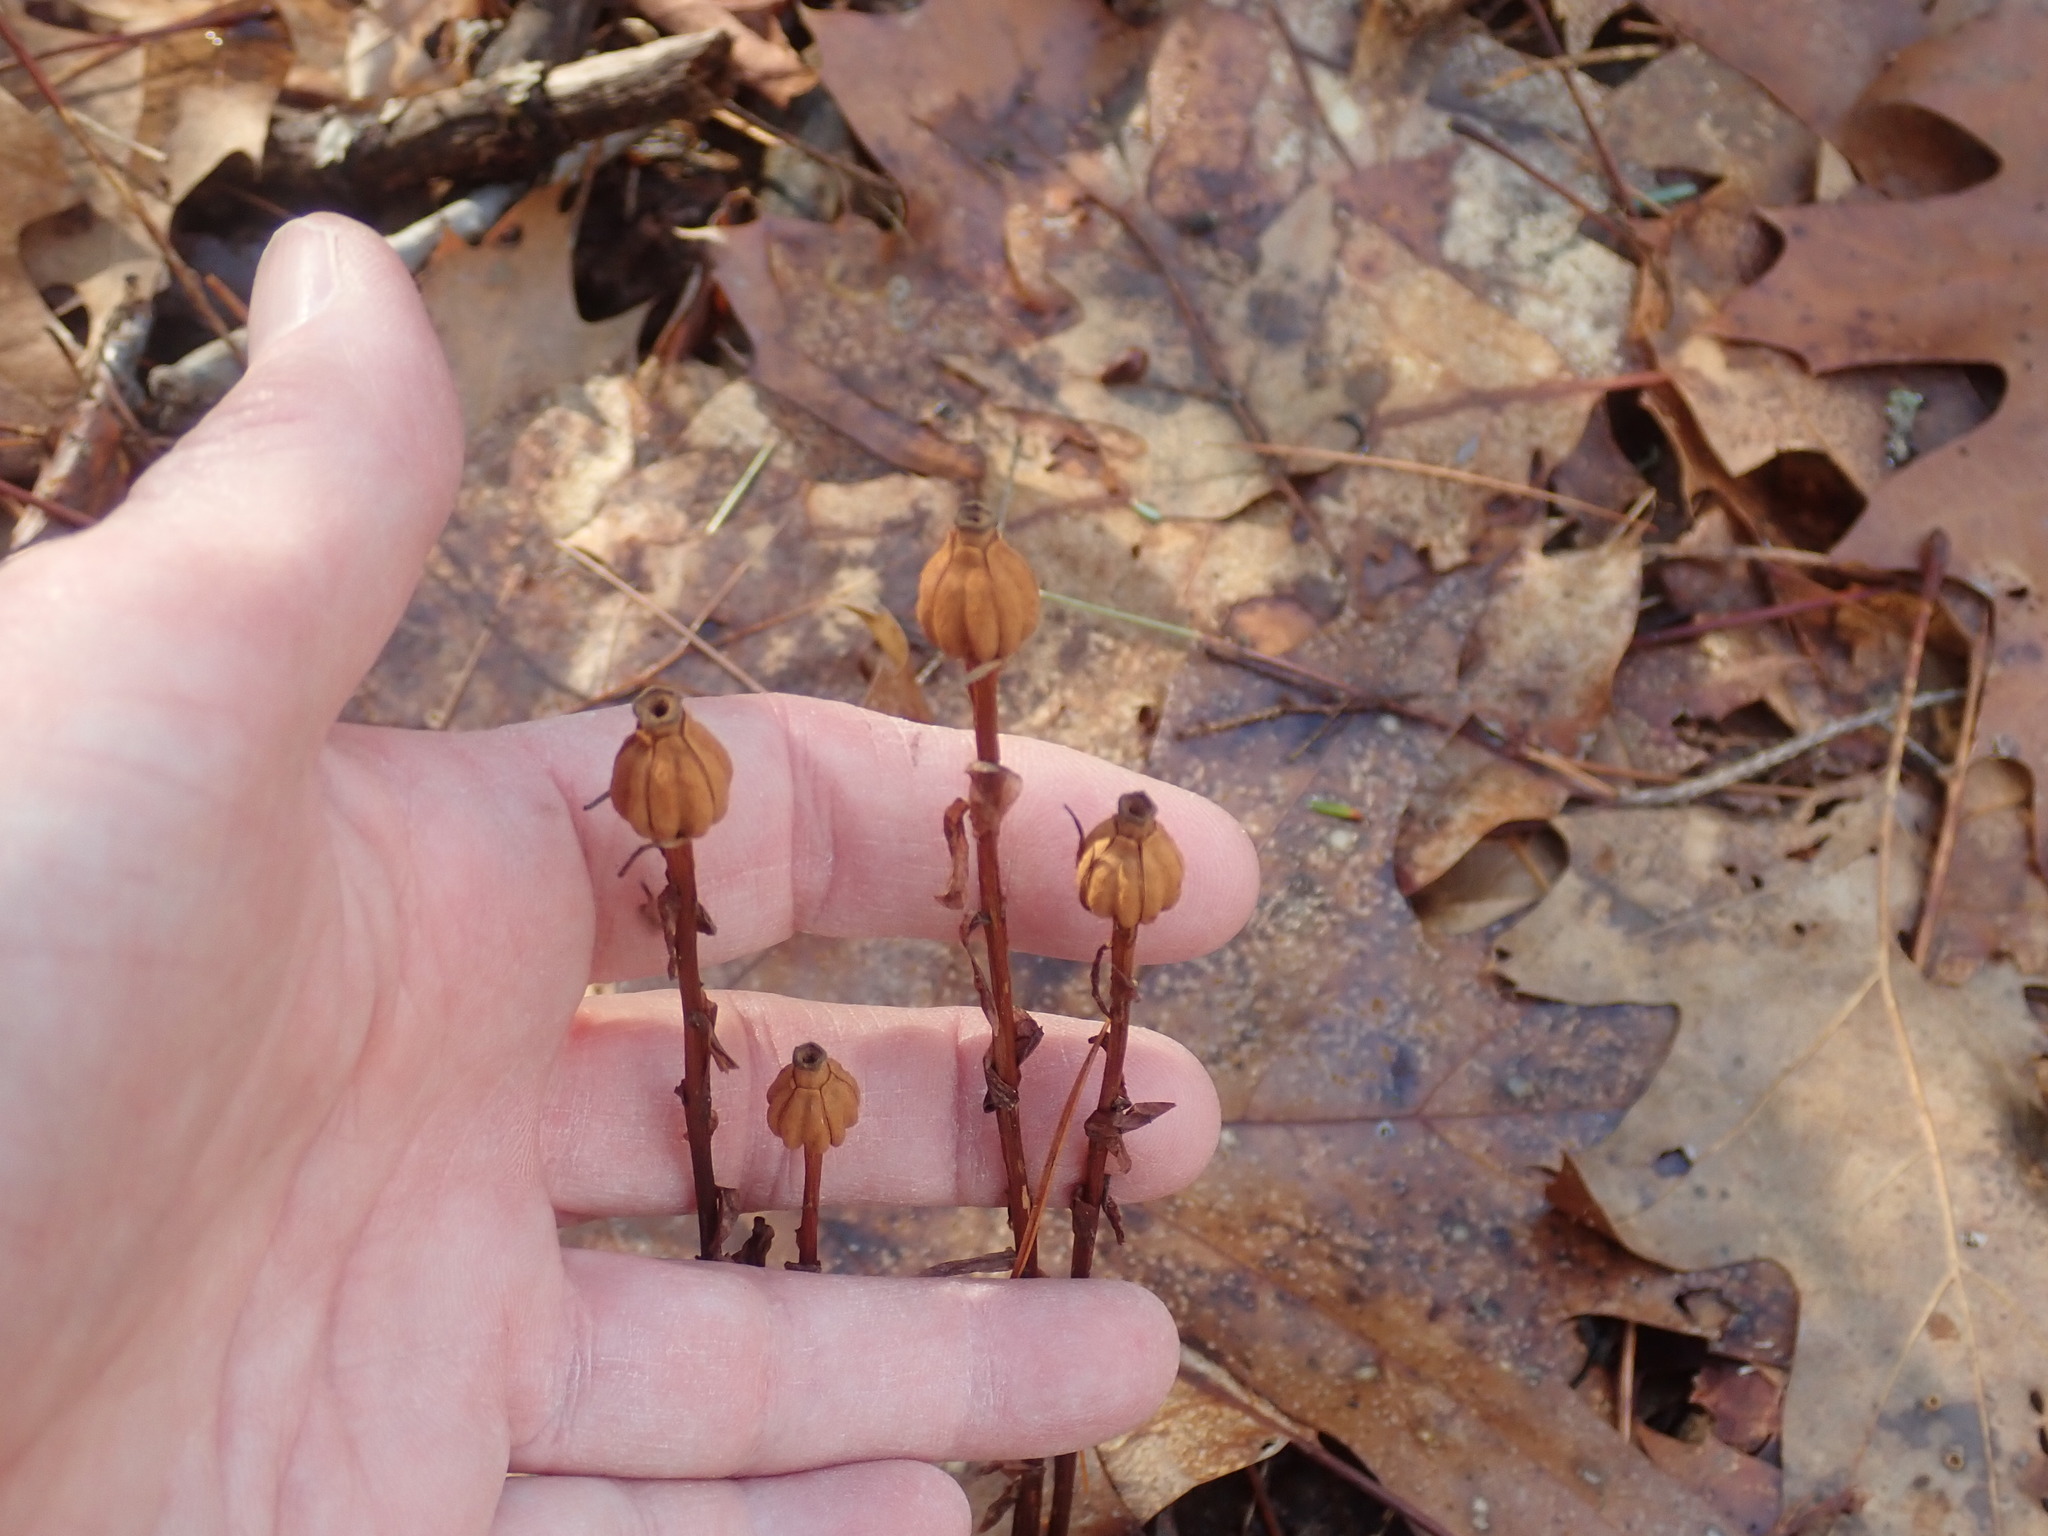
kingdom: Plantae
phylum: Tracheophyta
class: Magnoliopsida
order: Ericales
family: Ericaceae
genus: Monotropa
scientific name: Monotropa uniflora
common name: Convulsion root
